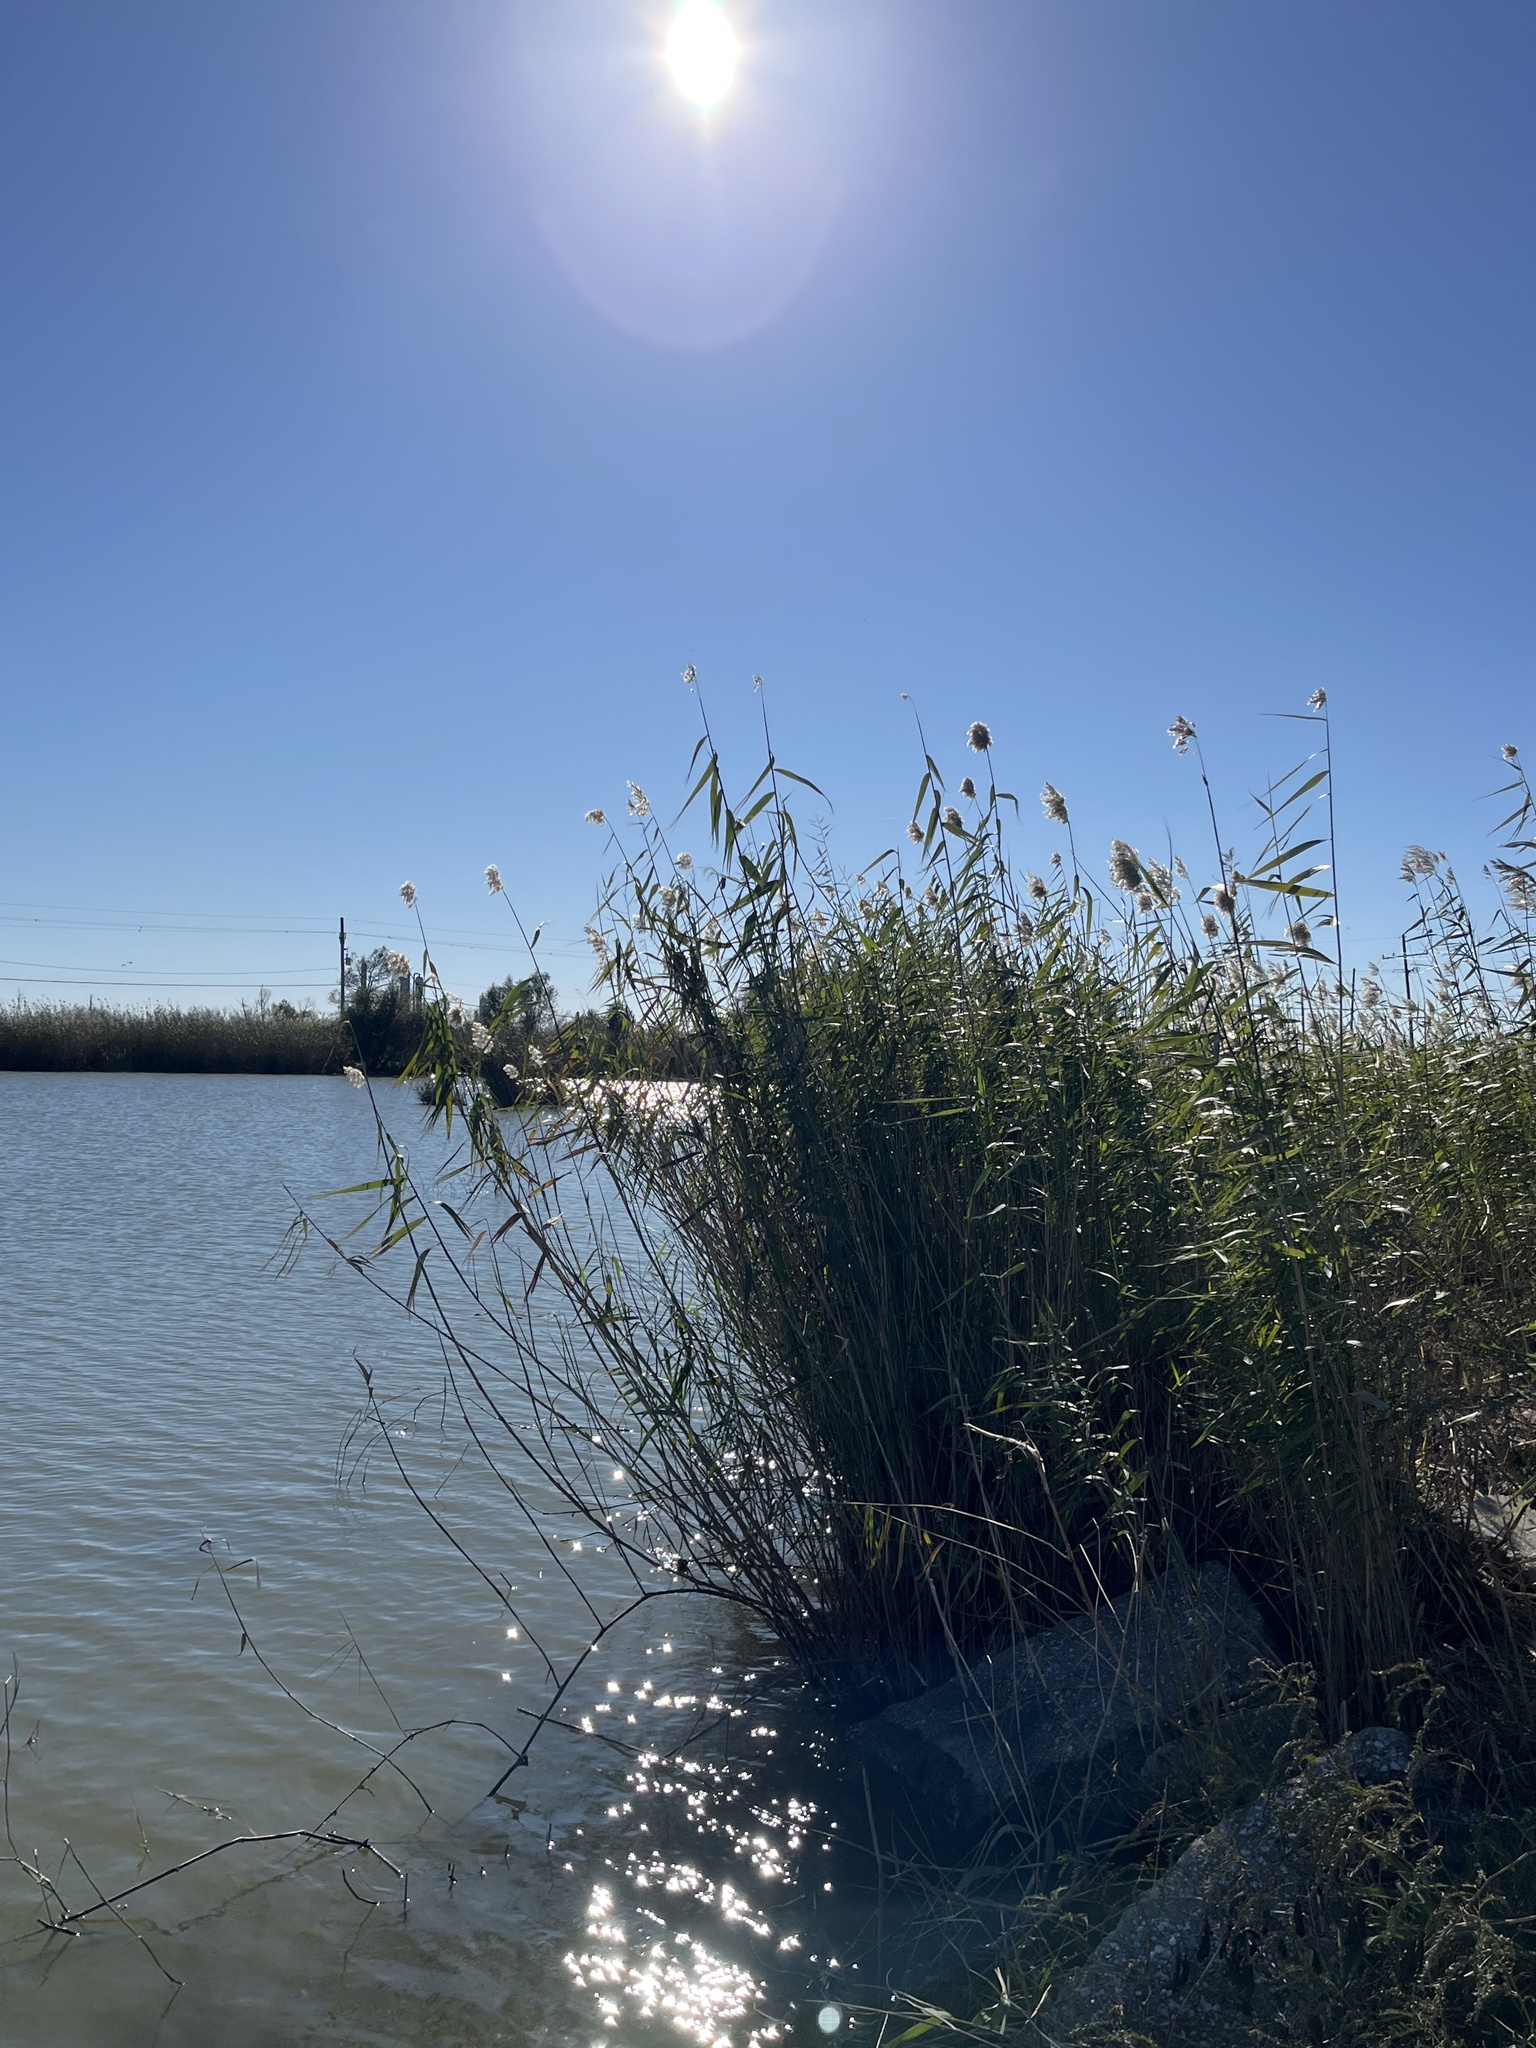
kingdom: Plantae
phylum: Tracheophyta
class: Liliopsida
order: Poales
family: Poaceae
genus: Phragmites
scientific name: Phragmites australis
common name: Common reed
